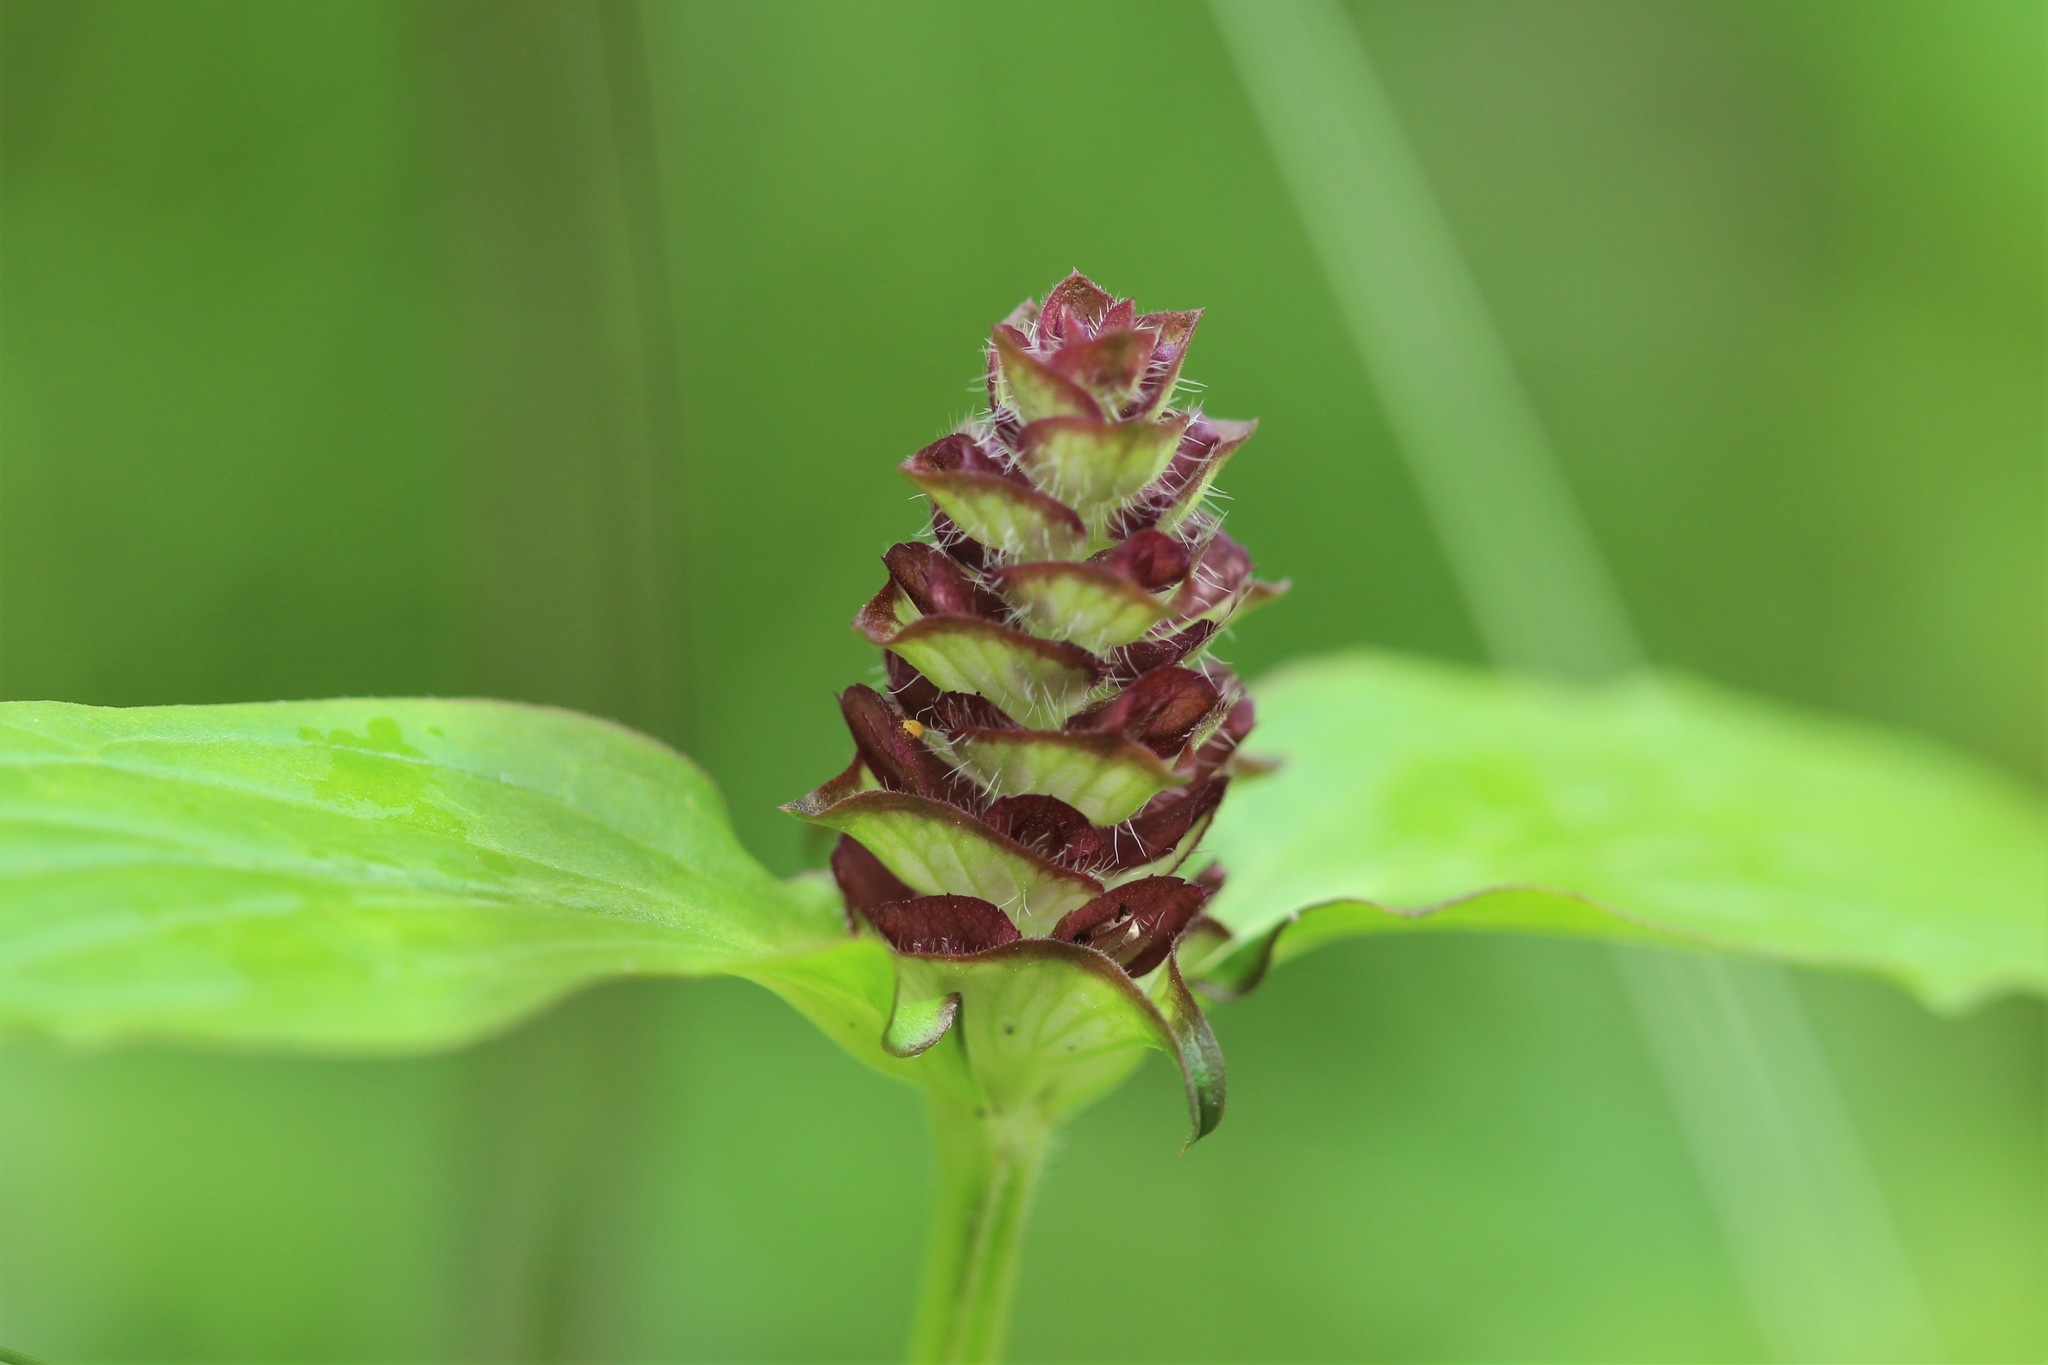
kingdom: Plantae
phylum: Tracheophyta
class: Magnoliopsida
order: Lamiales
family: Lamiaceae
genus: Prunella
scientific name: Prunella vulgaris
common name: Heal-all
